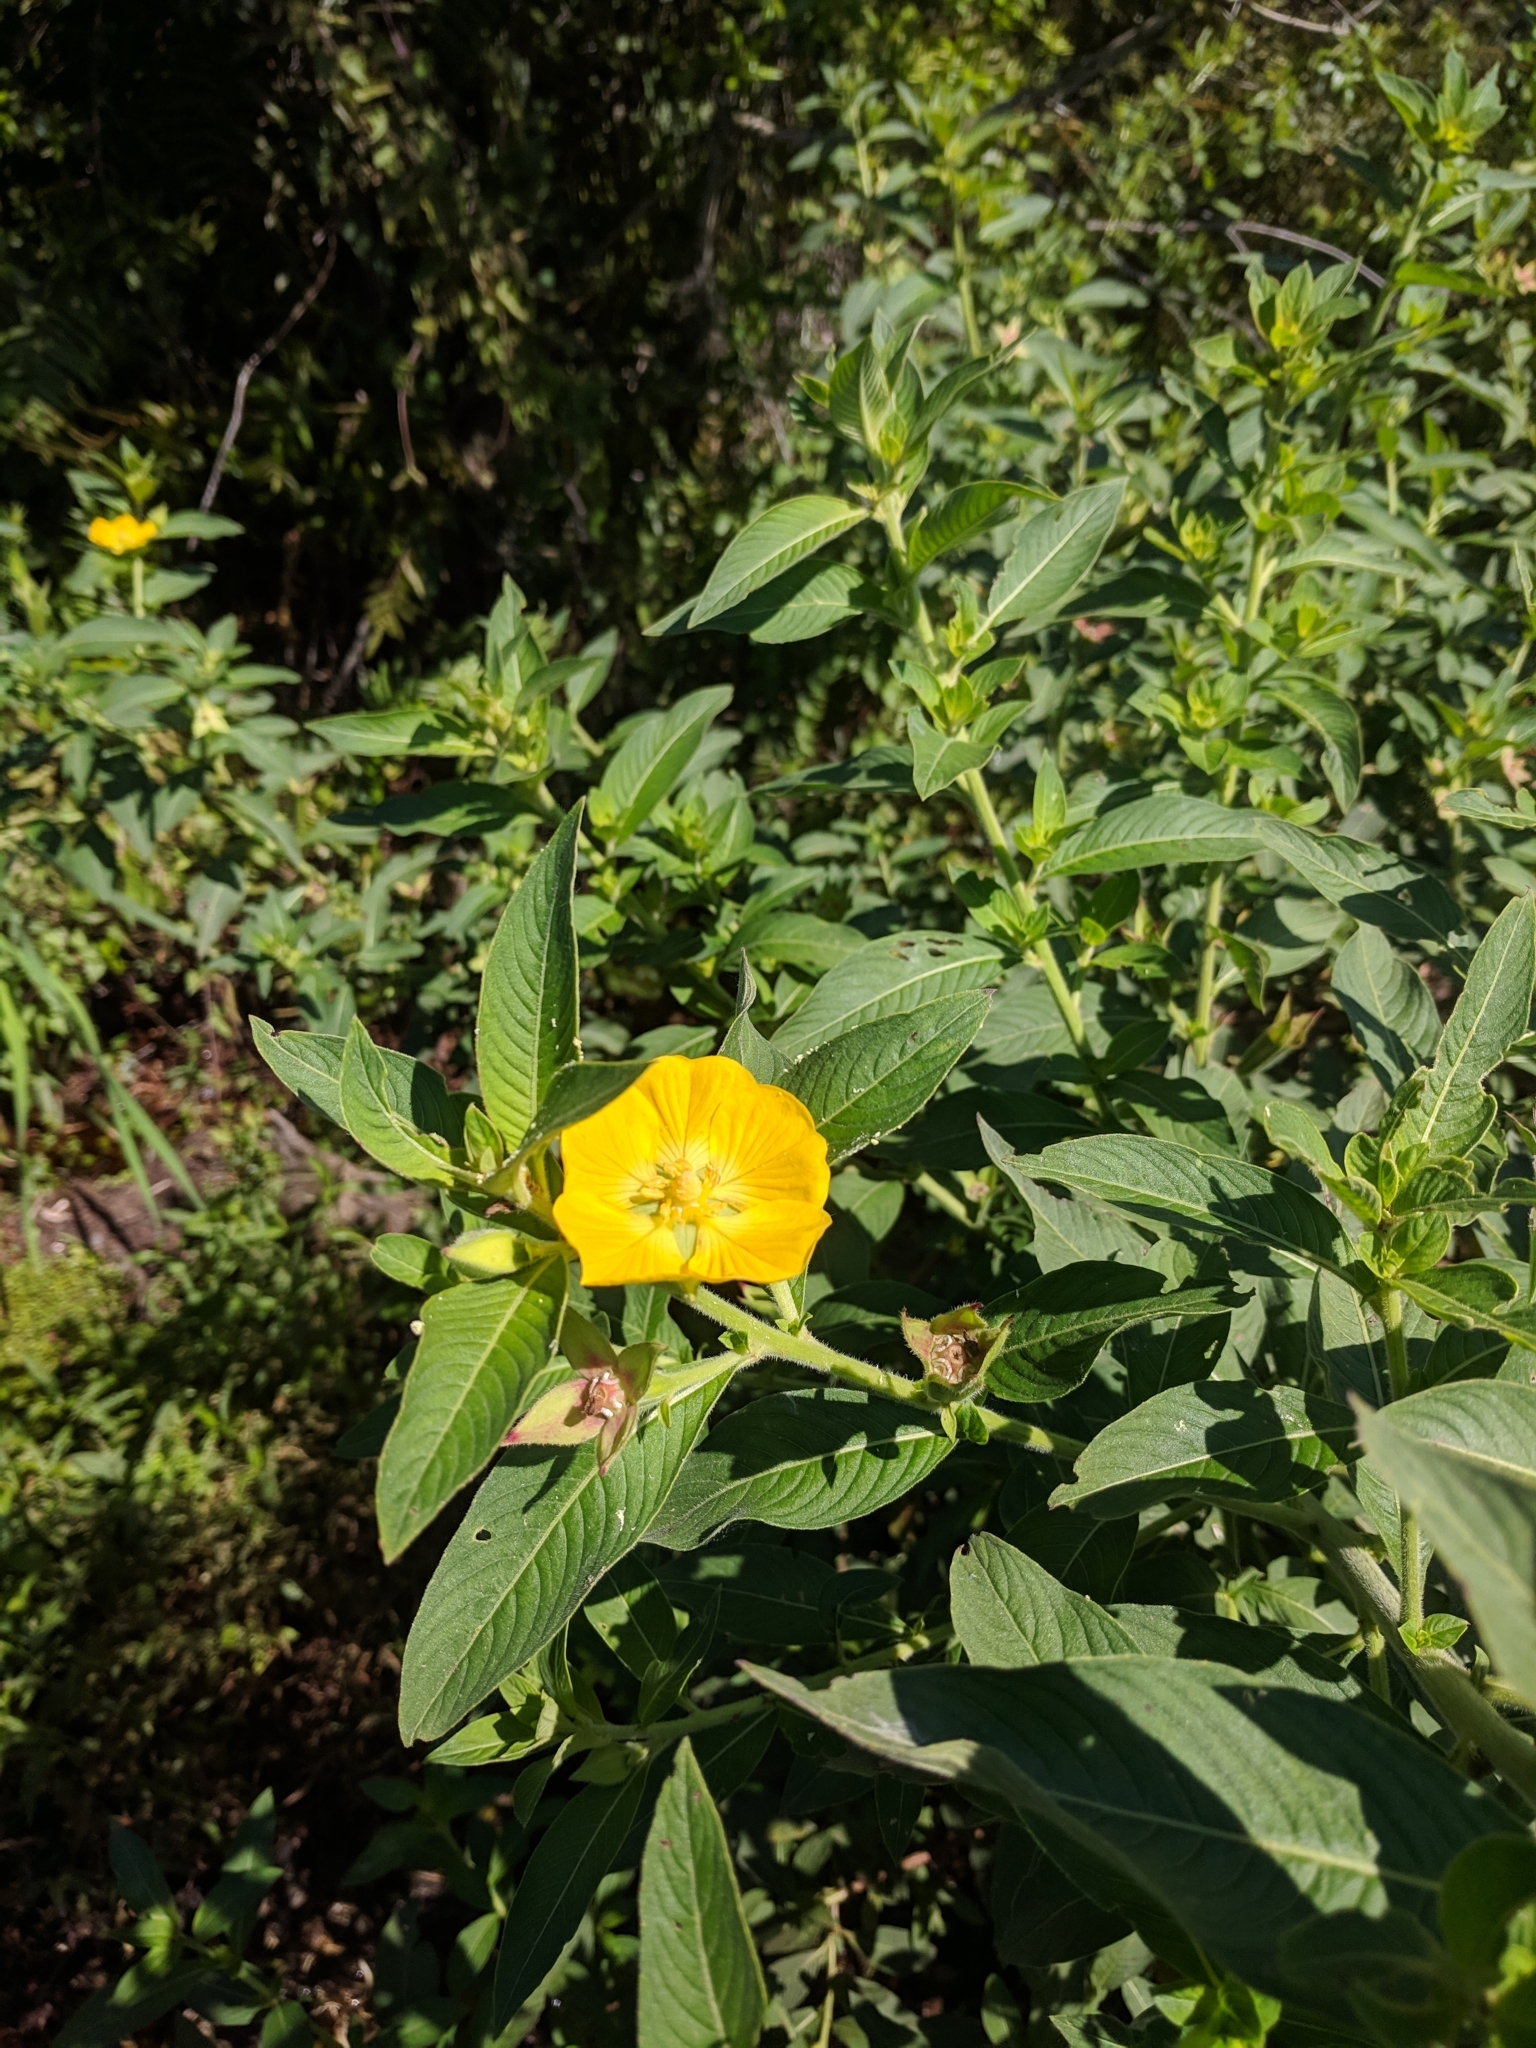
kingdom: Plantae
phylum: Tracheophyta
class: Magnoliopsida
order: Myrtales
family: Onagraceae
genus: Ludwigia
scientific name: Ludwigia peruviana
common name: Peruvian primrose-willow
